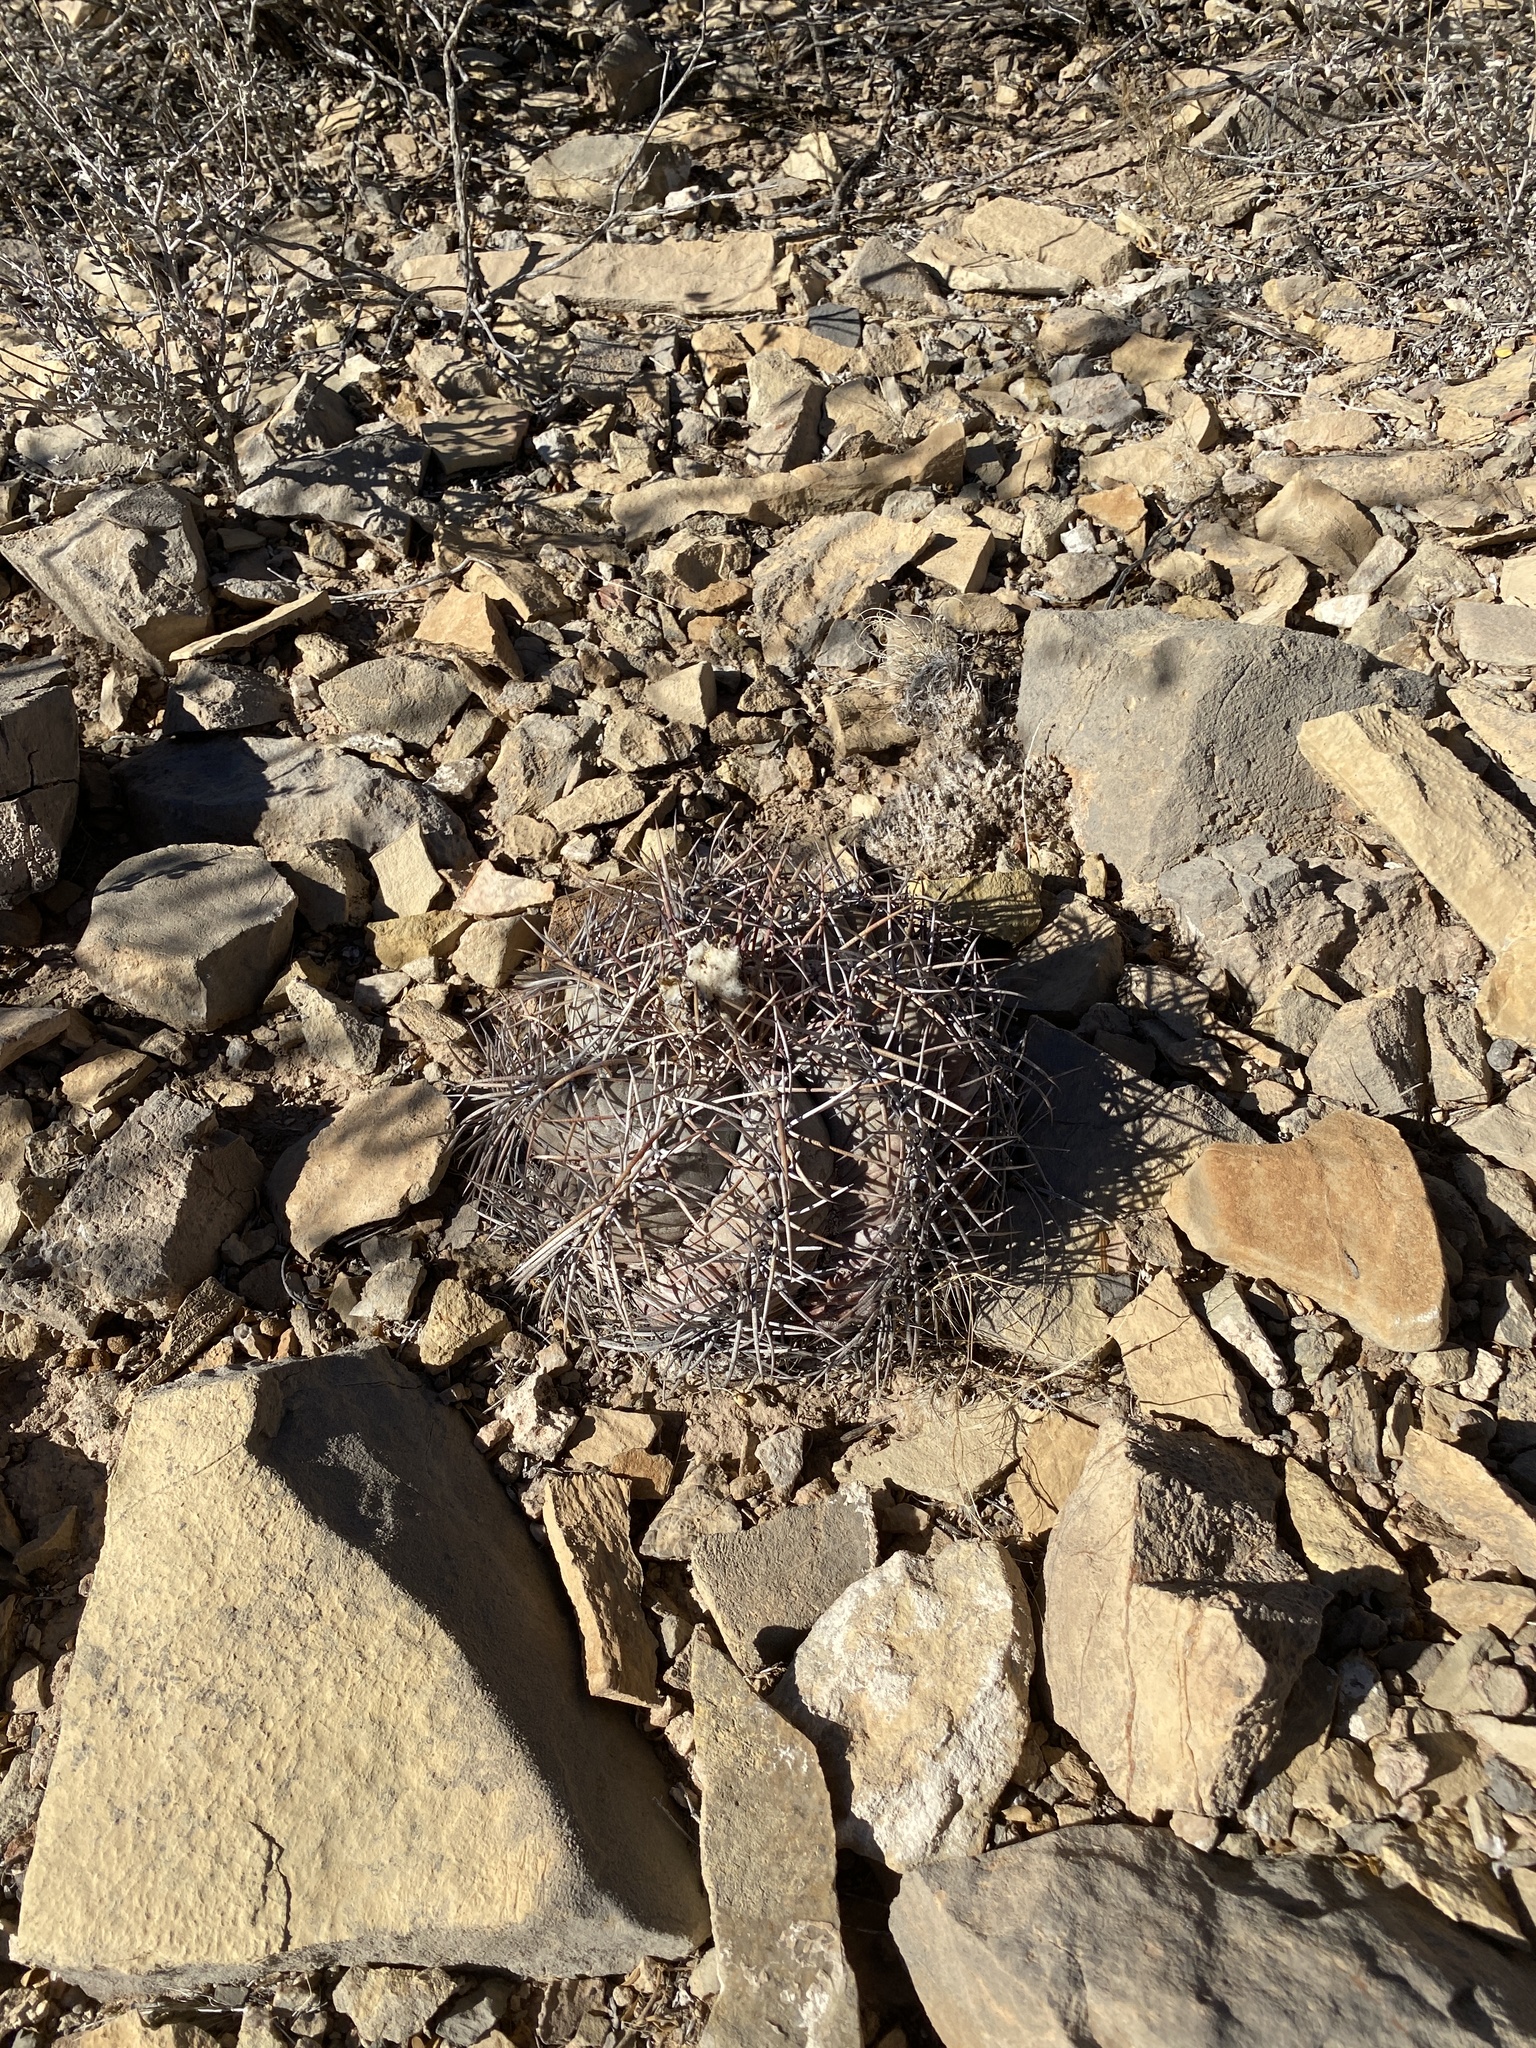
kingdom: Plantae
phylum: Tracheophyta
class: Magnoliopsida
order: Caryophyllales
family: Cactaceae
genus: Echinocactus
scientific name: Echinocactus horizonthalonius
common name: Devilshead
